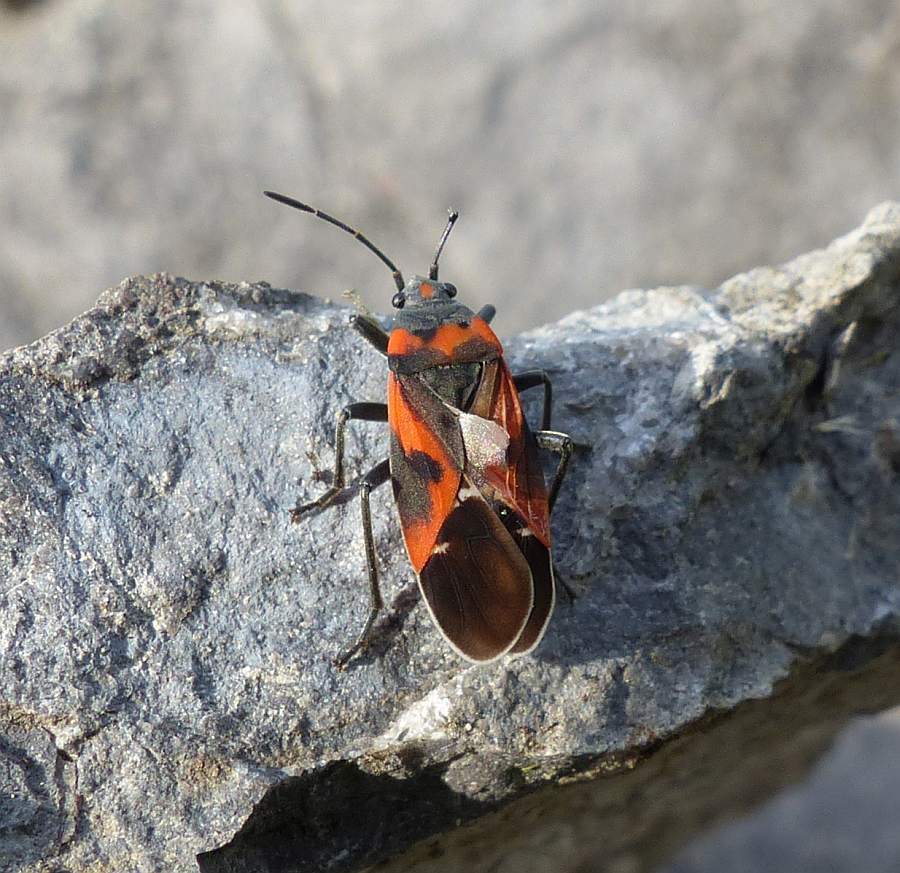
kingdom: Animalia
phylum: Arthropoda
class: Insecta
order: Hemiptera
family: Lygaeidae
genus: Lygaeus
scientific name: Lygaeus kalmii
